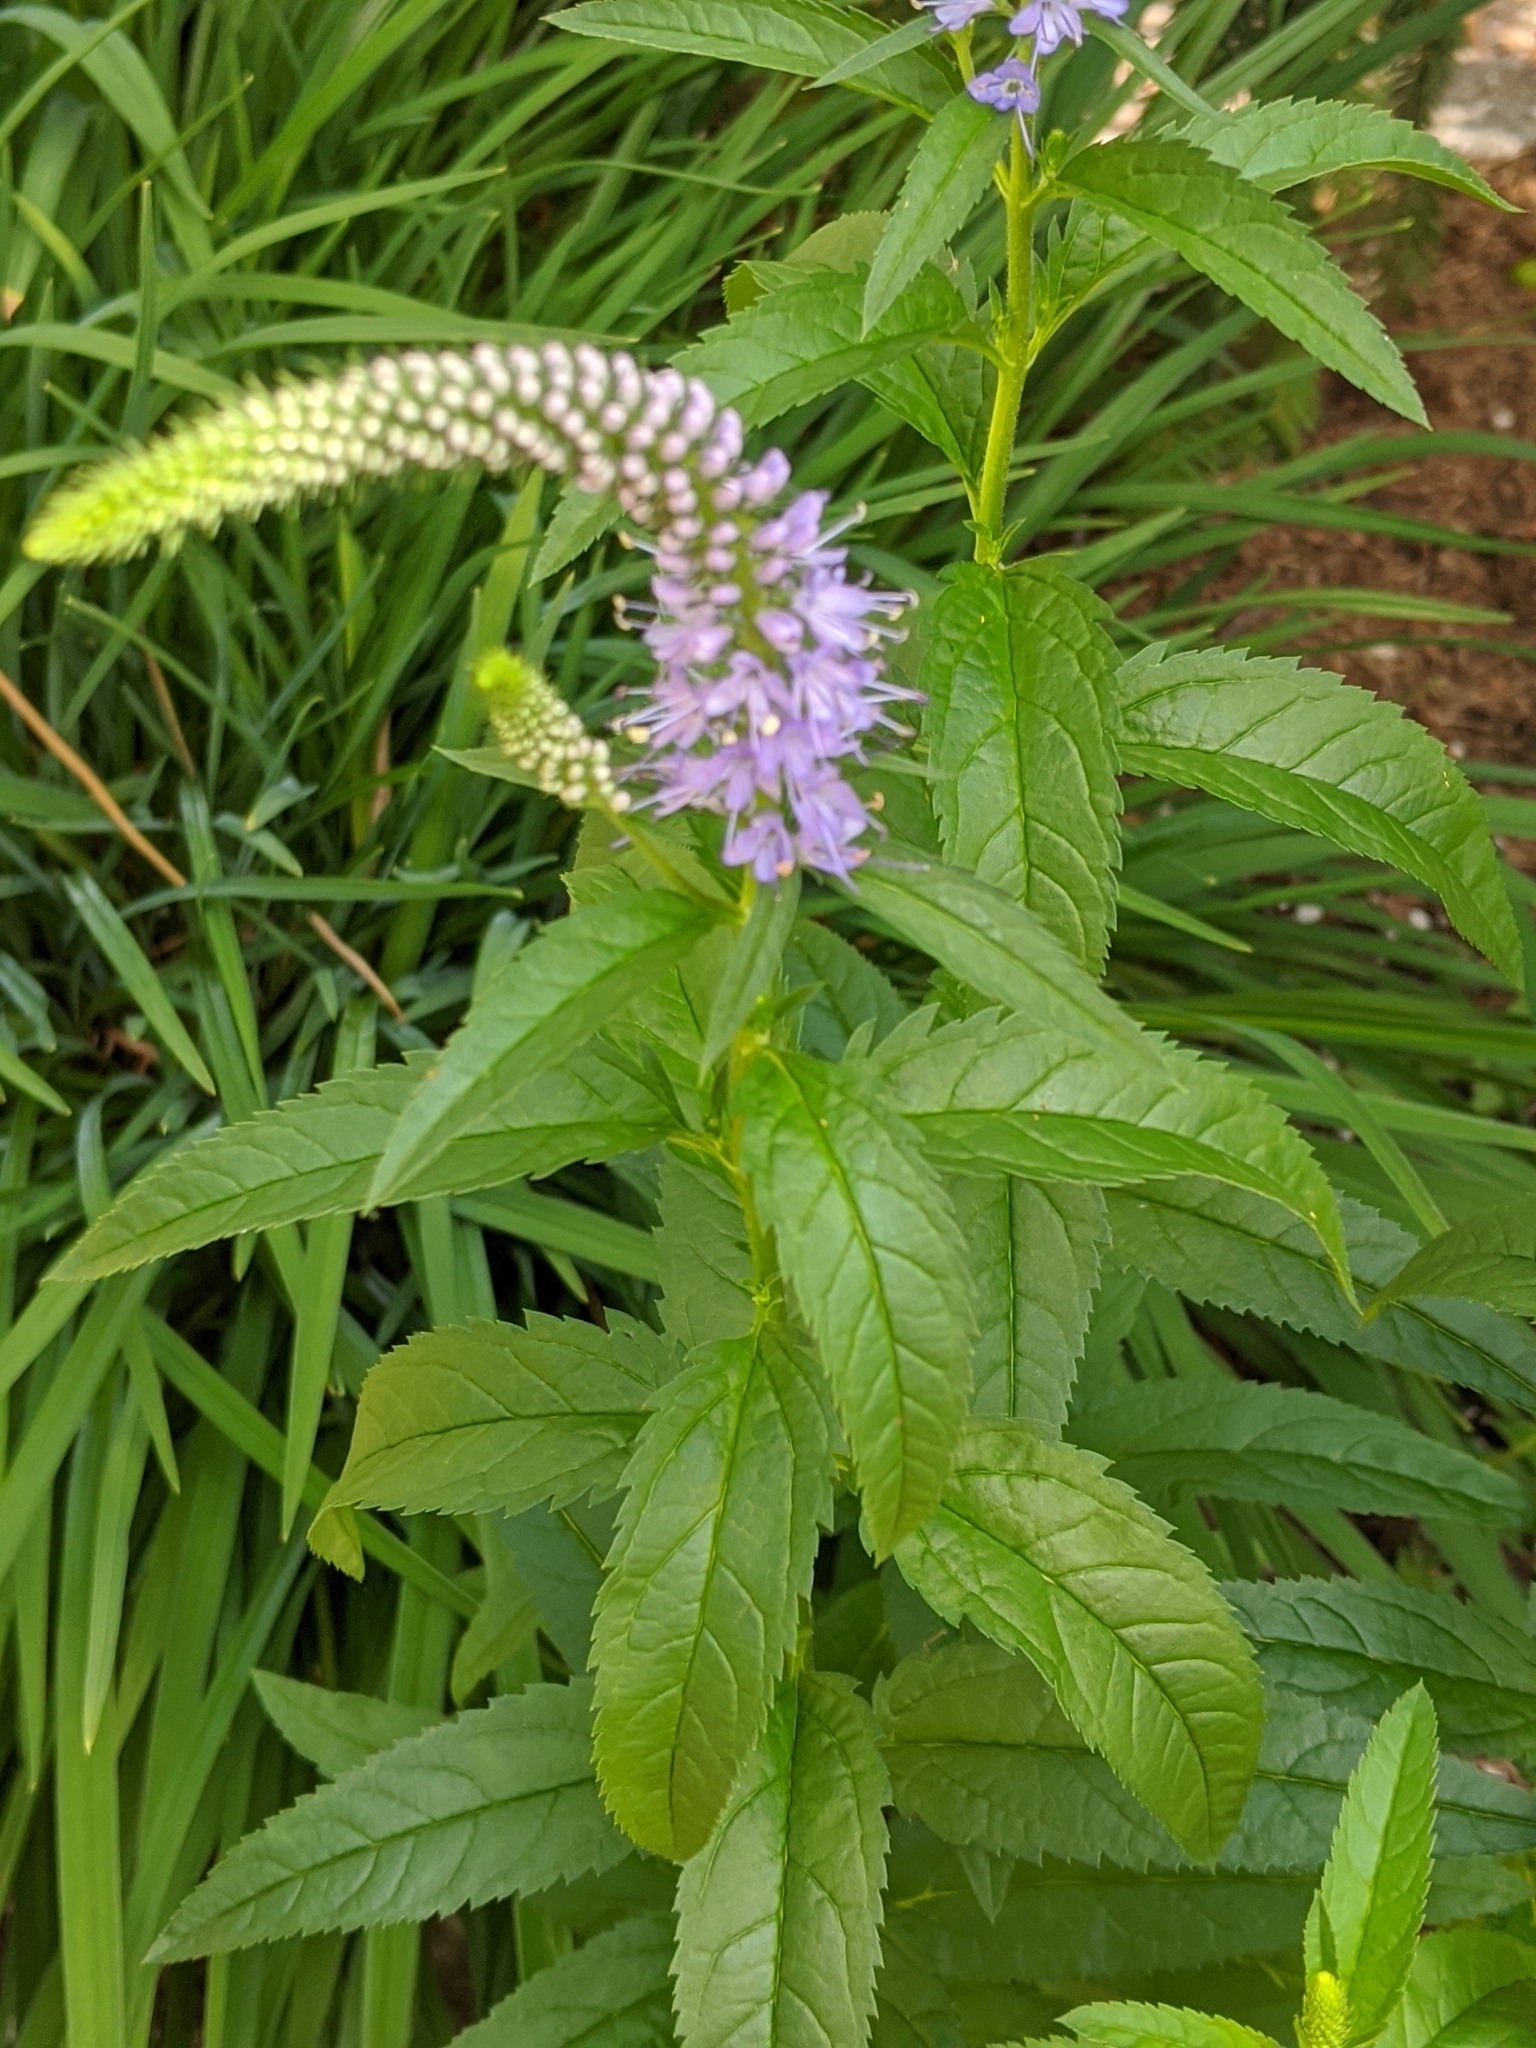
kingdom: Plantae
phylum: Tracheophyta
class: Magnoliopsida
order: Lamiales
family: Plantaginaceae
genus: Veronica
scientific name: Veronica longifolia
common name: Garden speedwell
